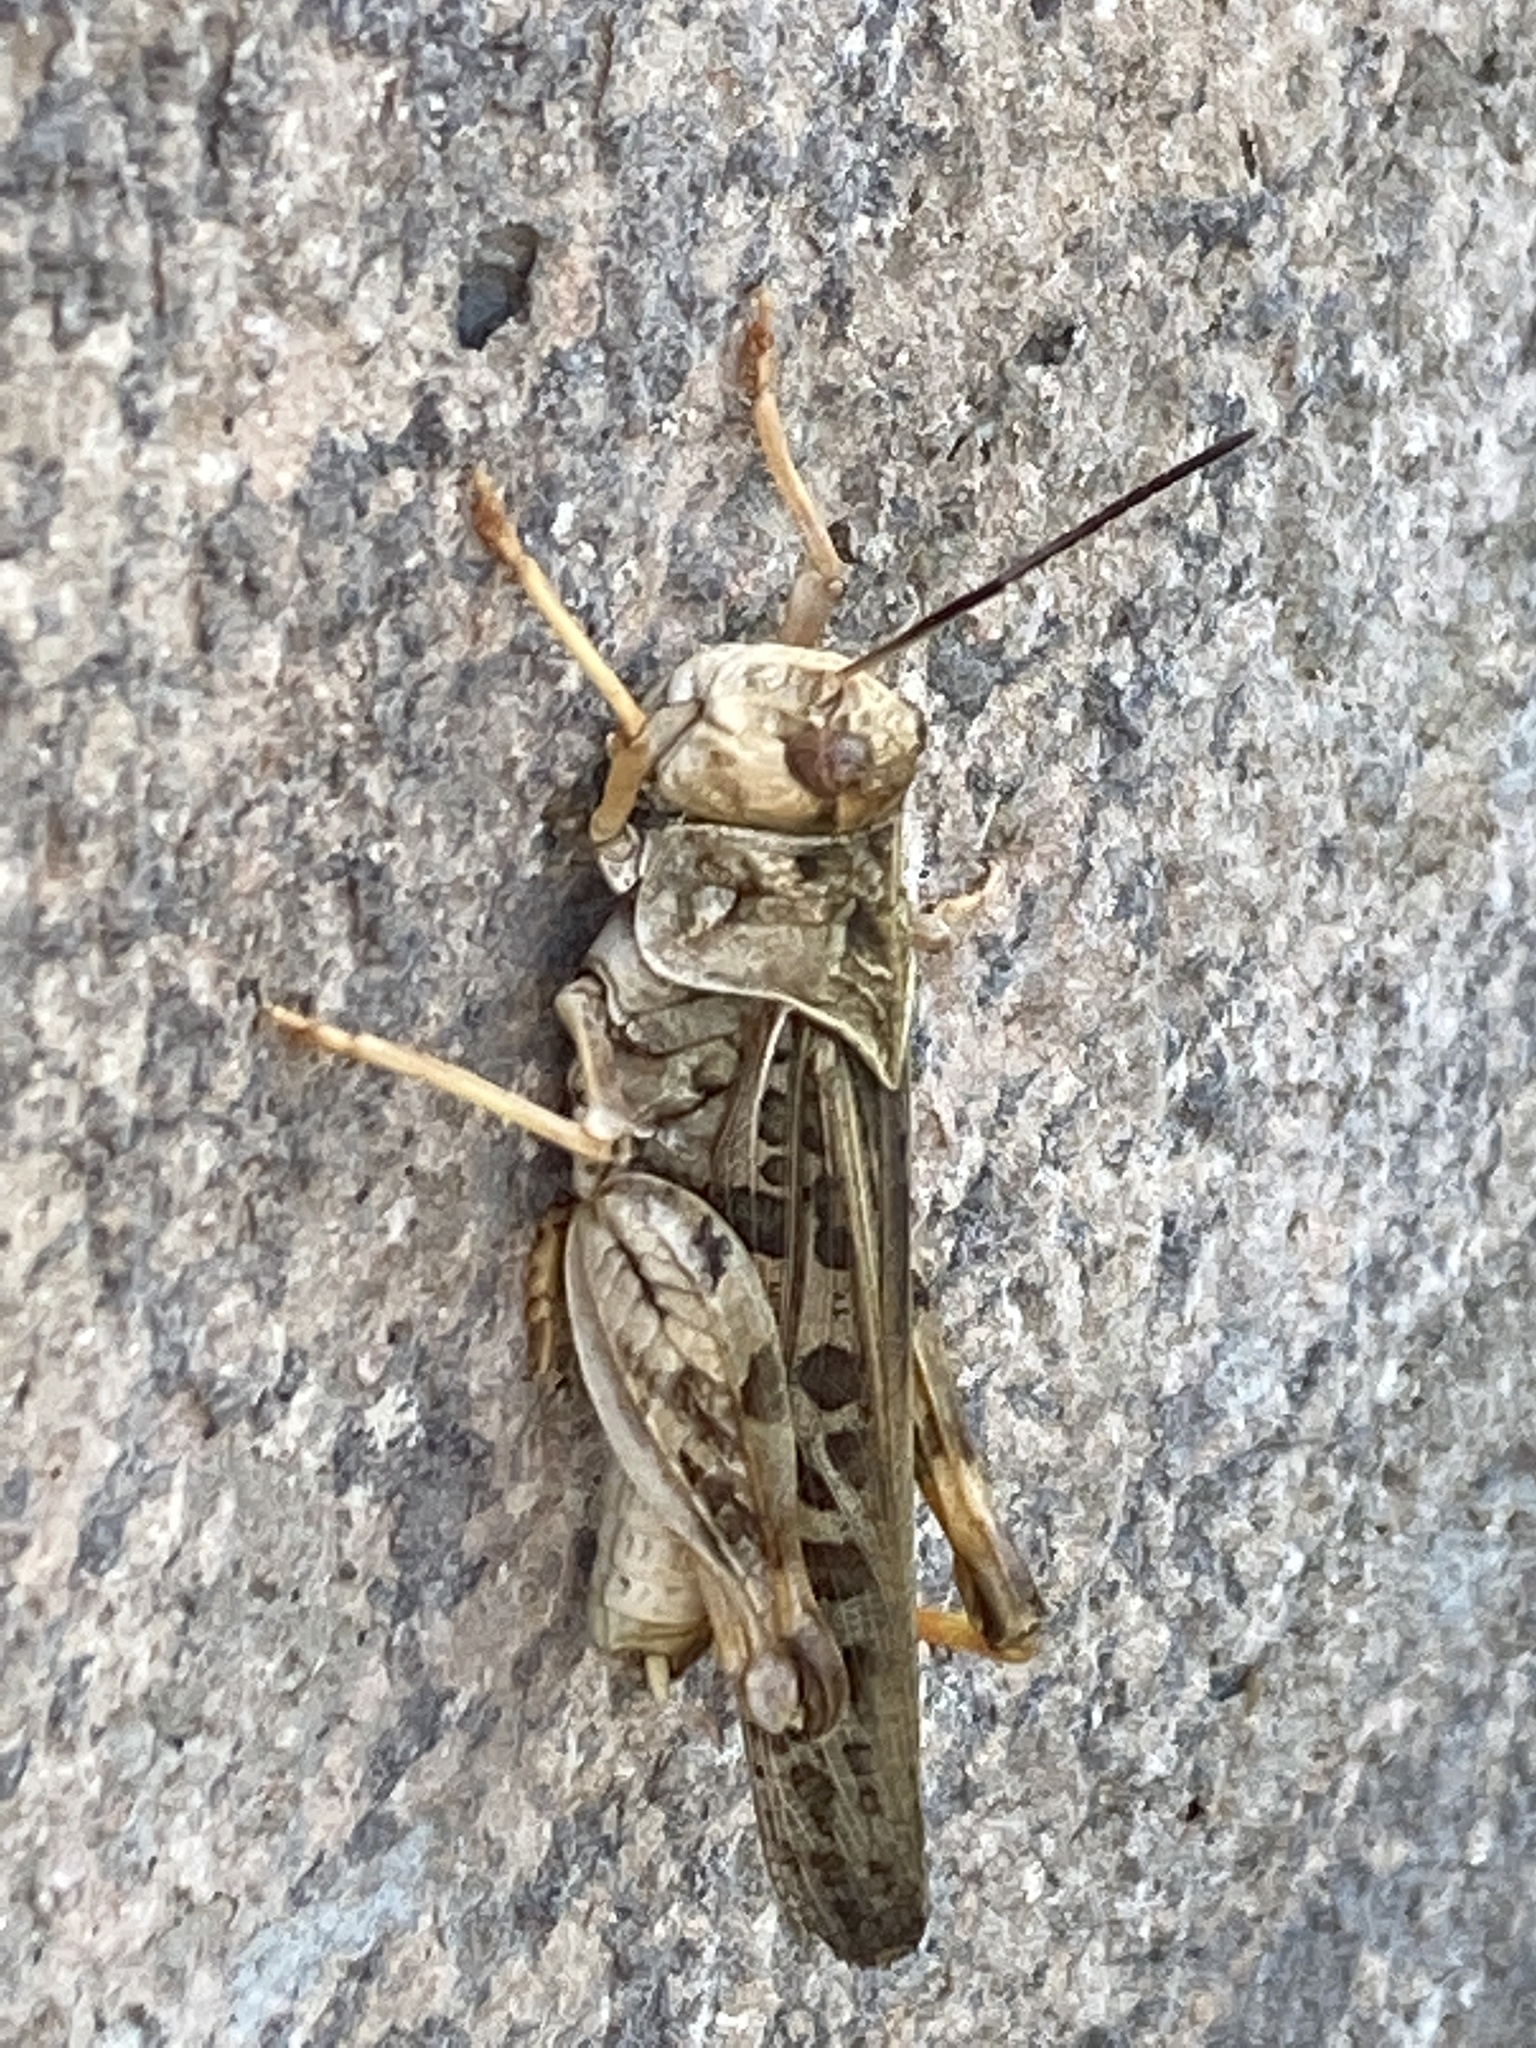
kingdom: Animalia
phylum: Arthropoda
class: Insecta
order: Orthoptera
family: Acrididae
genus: Hippiscus
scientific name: Hippiscus ocelote
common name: Wrinkled grasshopper
